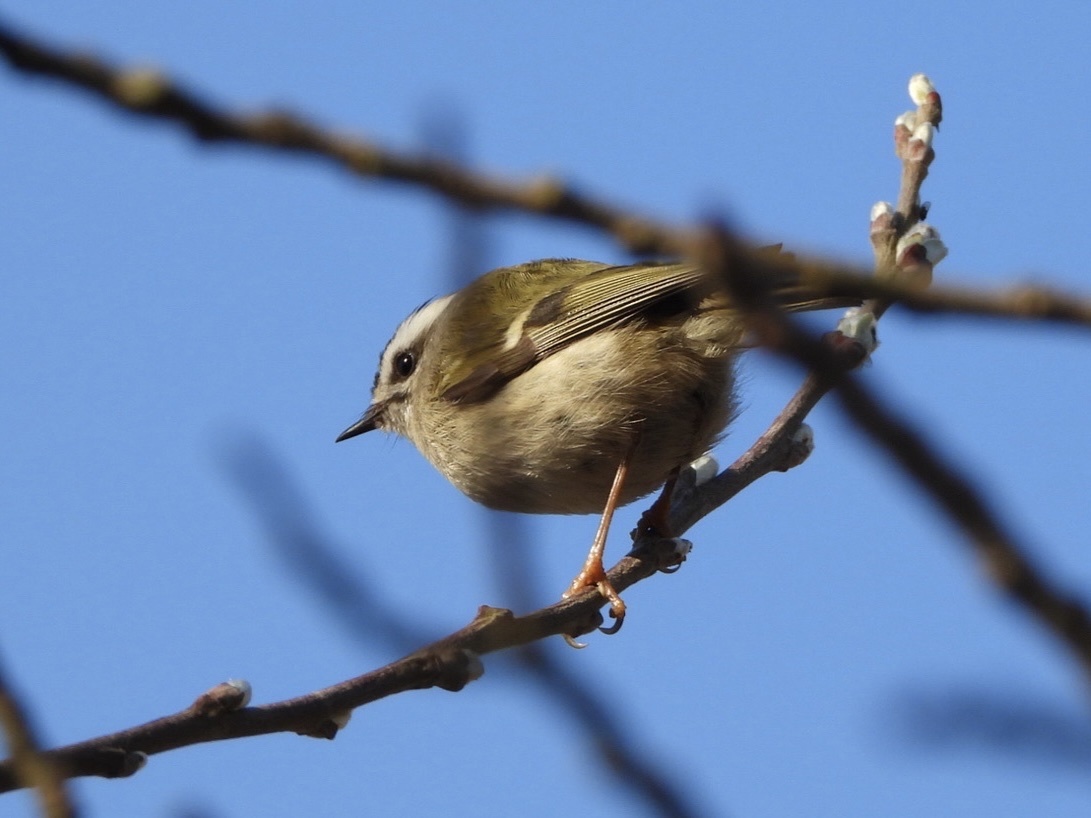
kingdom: Animalia
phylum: Chordata
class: Aves
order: Passeriformes
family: Regulidae
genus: Regulus
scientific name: Regulus satrapa
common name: Golden-crowned kinglet
